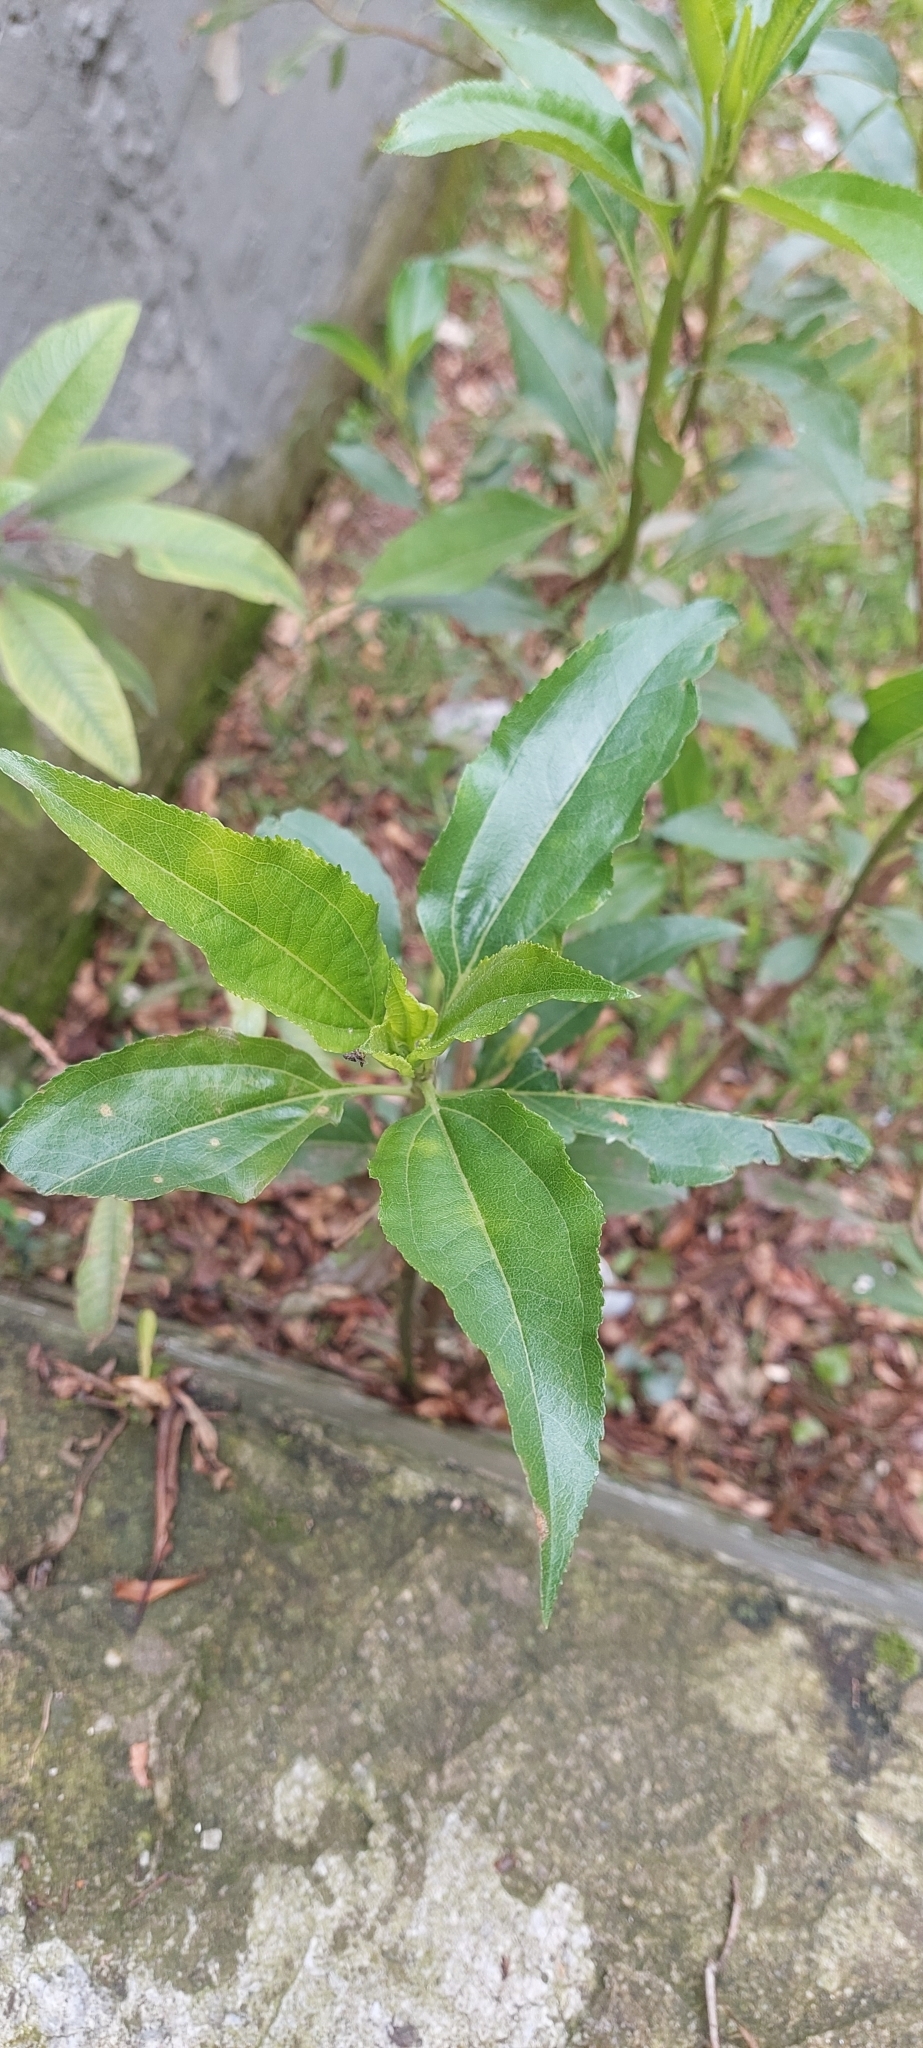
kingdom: Plantae
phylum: Tracheophyta
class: Magnoliopsida
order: Asterales
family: Asteraceae
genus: Baccharis
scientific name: Baccharis latifolia
